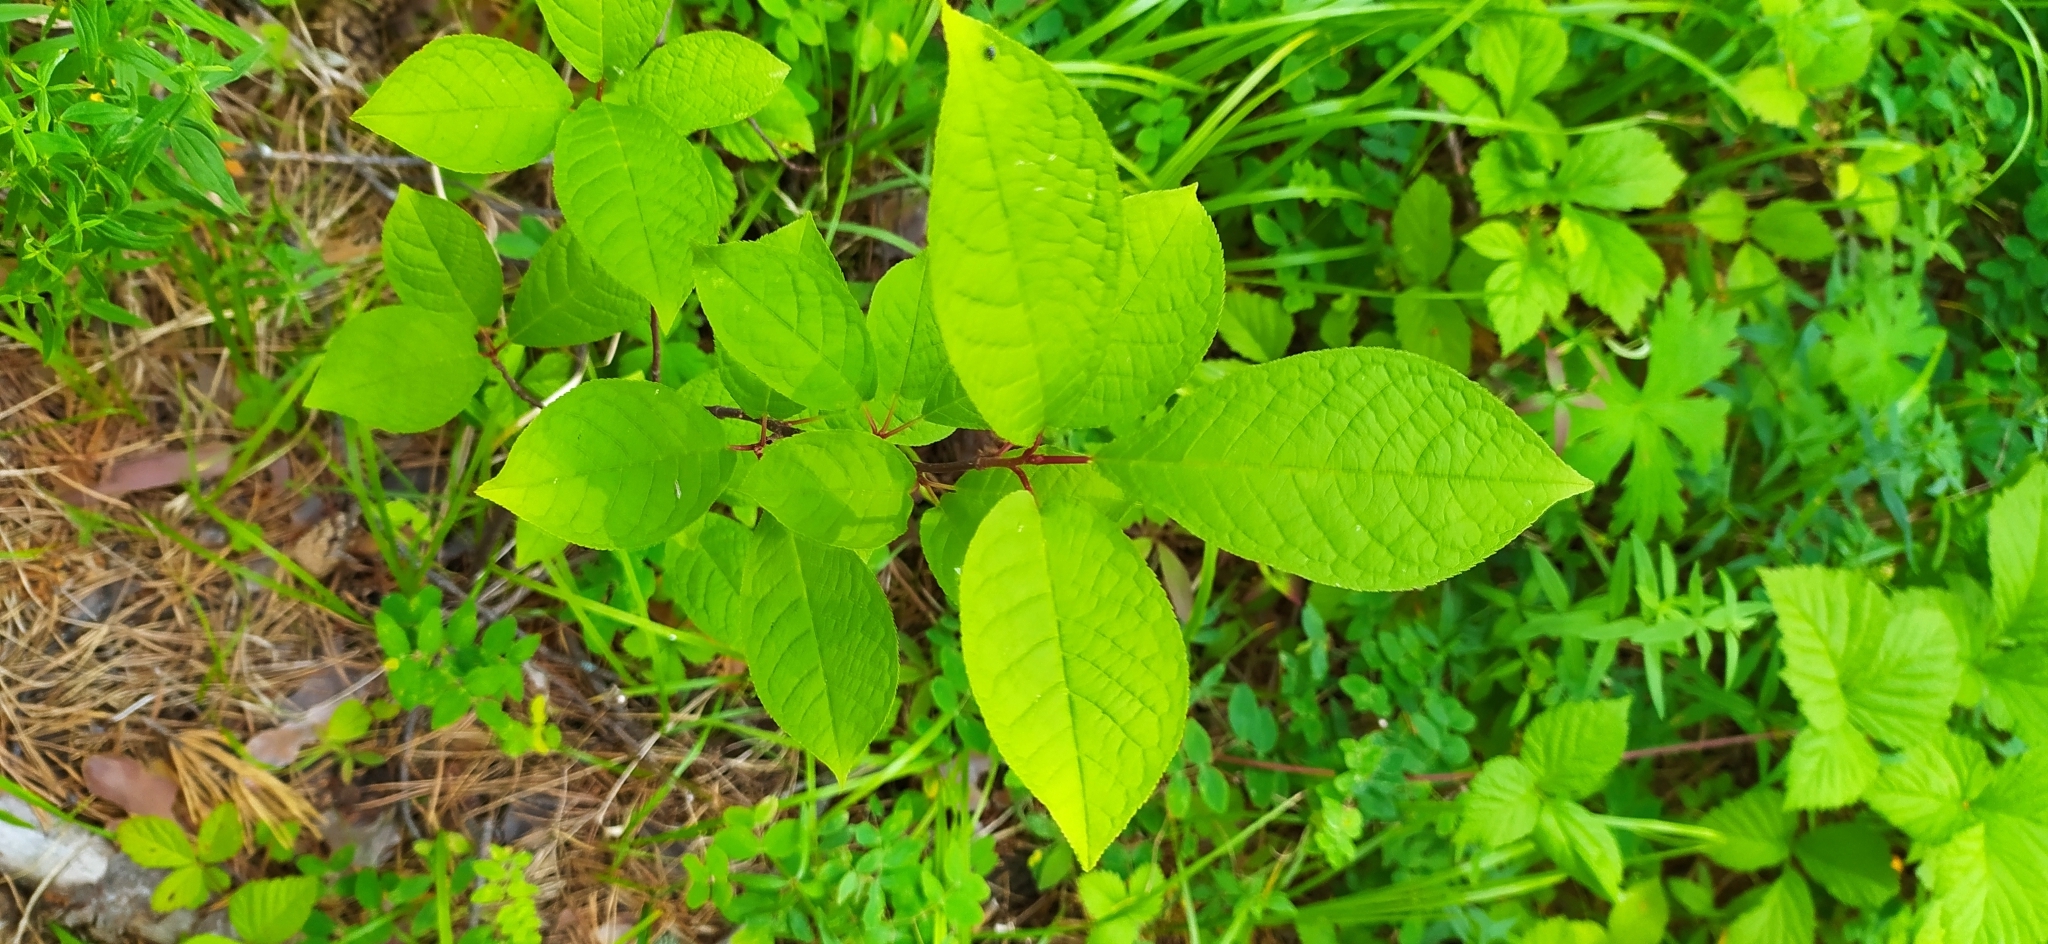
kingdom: Plantae
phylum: Tracheophyta
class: Magnoliopsida
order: Rosales
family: Rosaceae
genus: Prunus
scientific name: Prunus padus
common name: Bird cherry
